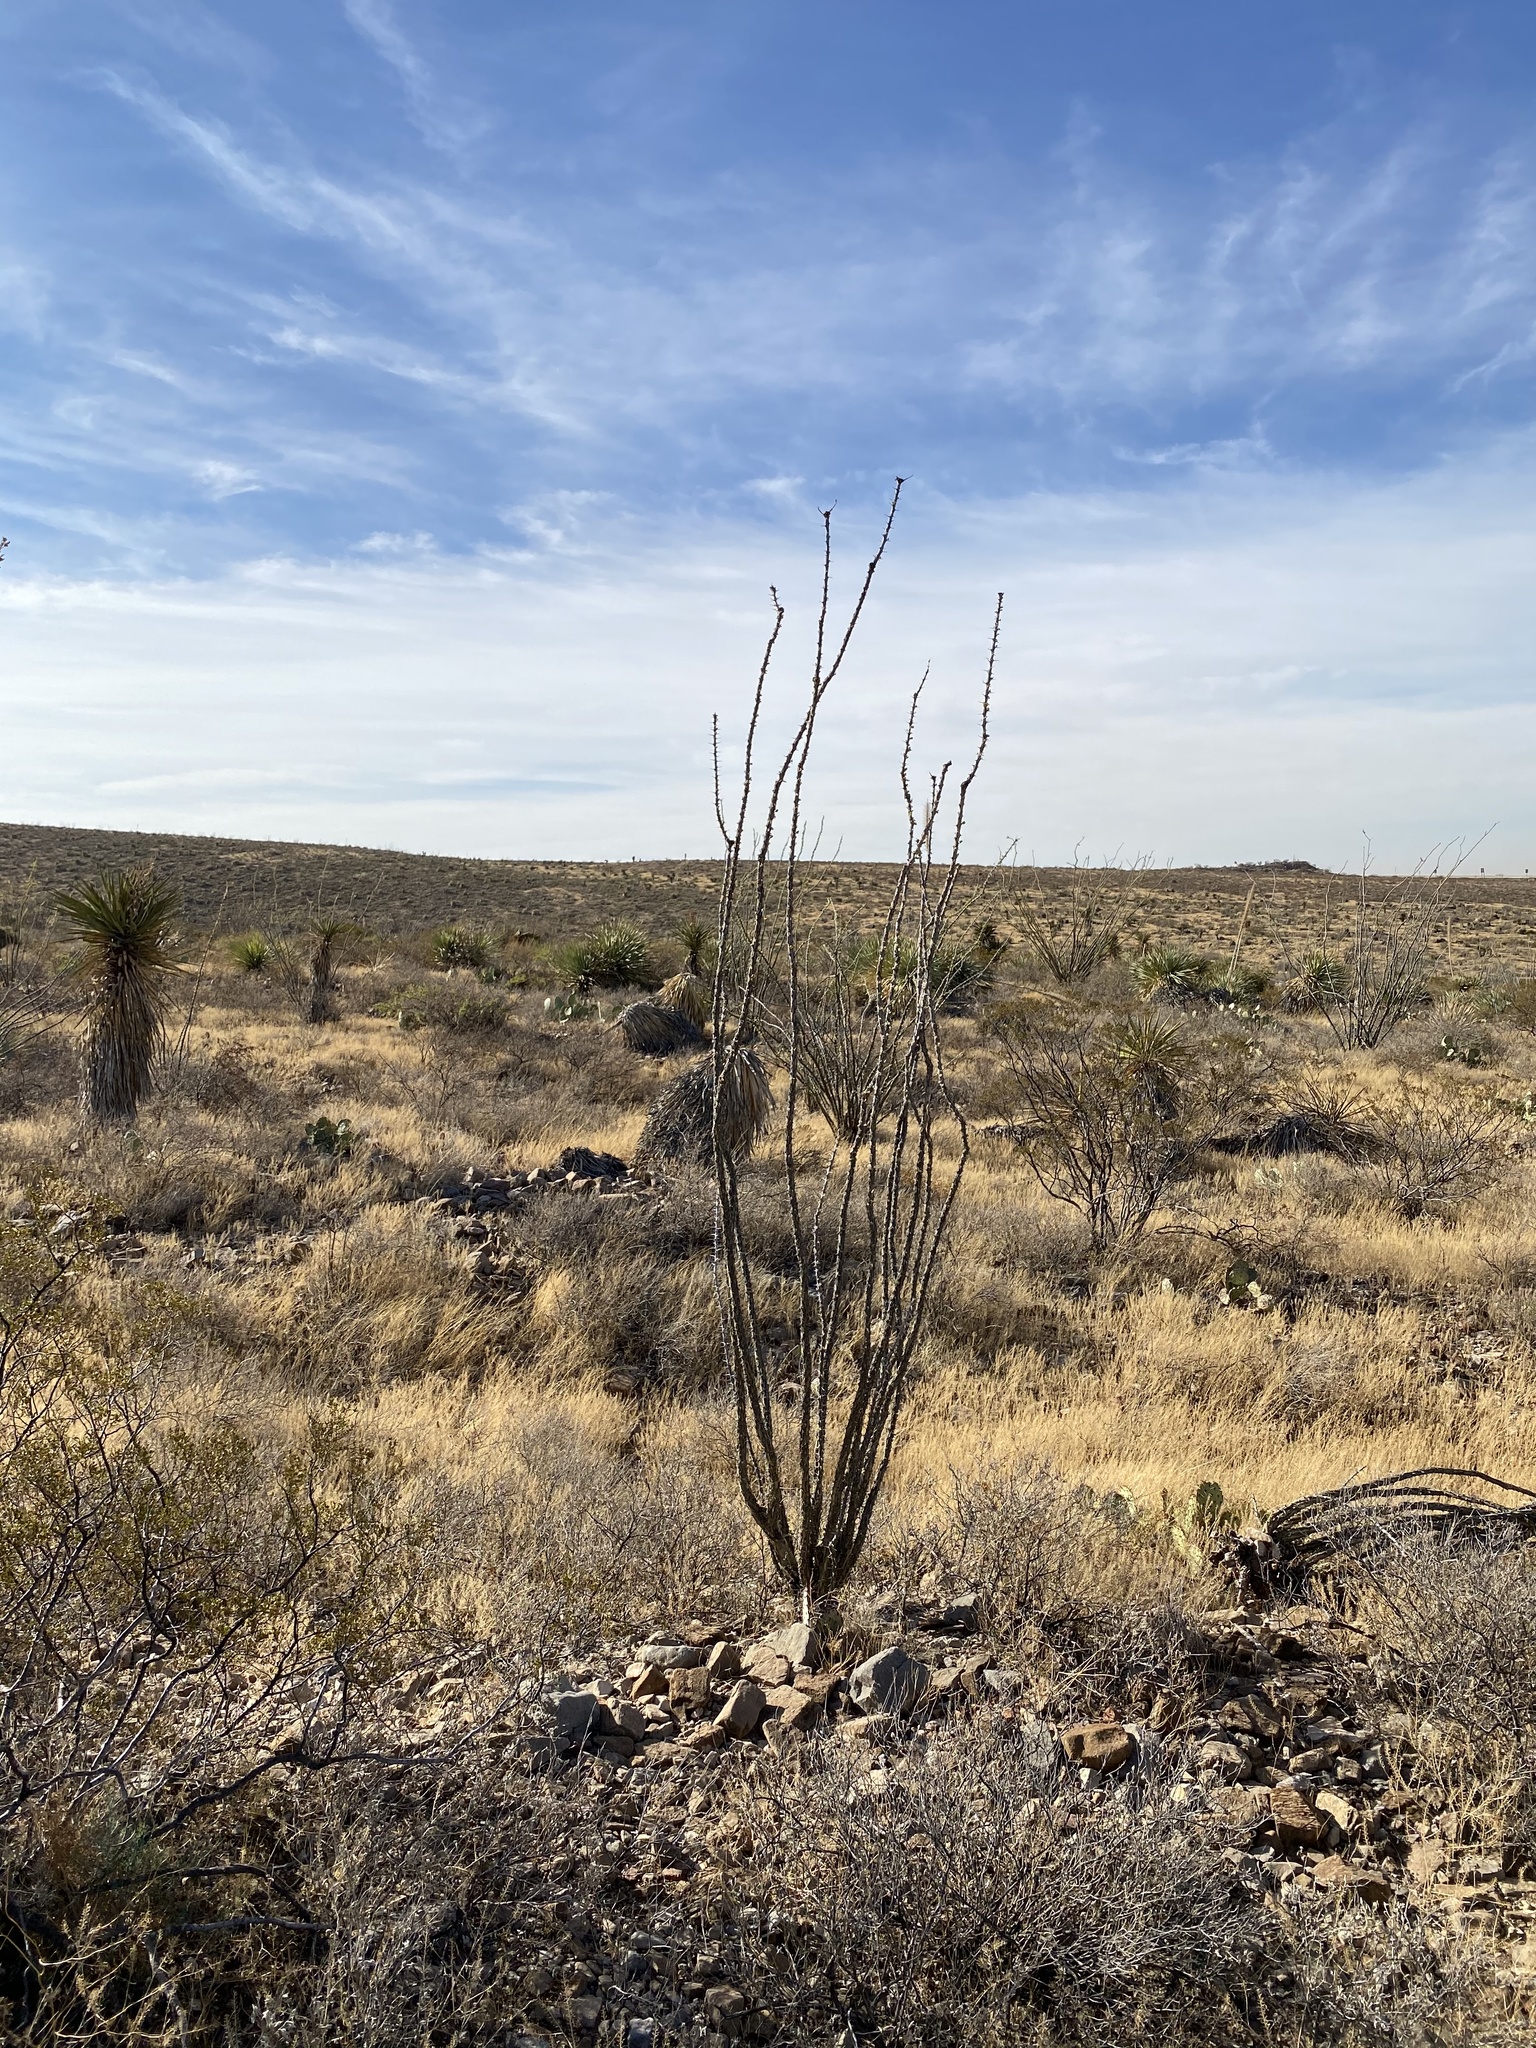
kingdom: Plantae
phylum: Tracheophyta
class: Magnoliopsida
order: Ericales
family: Fouquieriaceae
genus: Fouquieria
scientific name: Fouquieria splendens
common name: Vine-cactus
